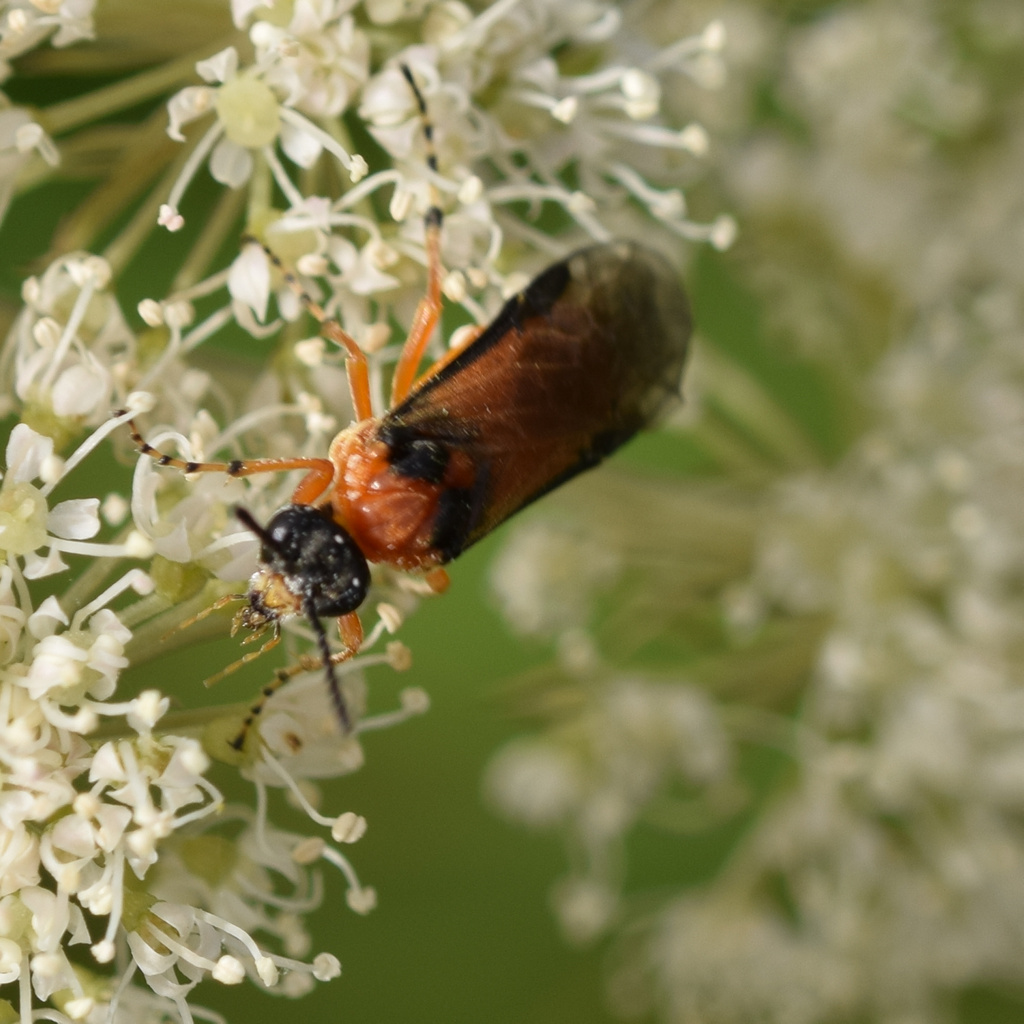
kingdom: Animalia
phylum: Arthropoda
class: Insecta
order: Hymenoptera
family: Tenthredinidae
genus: Athalia
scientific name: Athalia rosae
